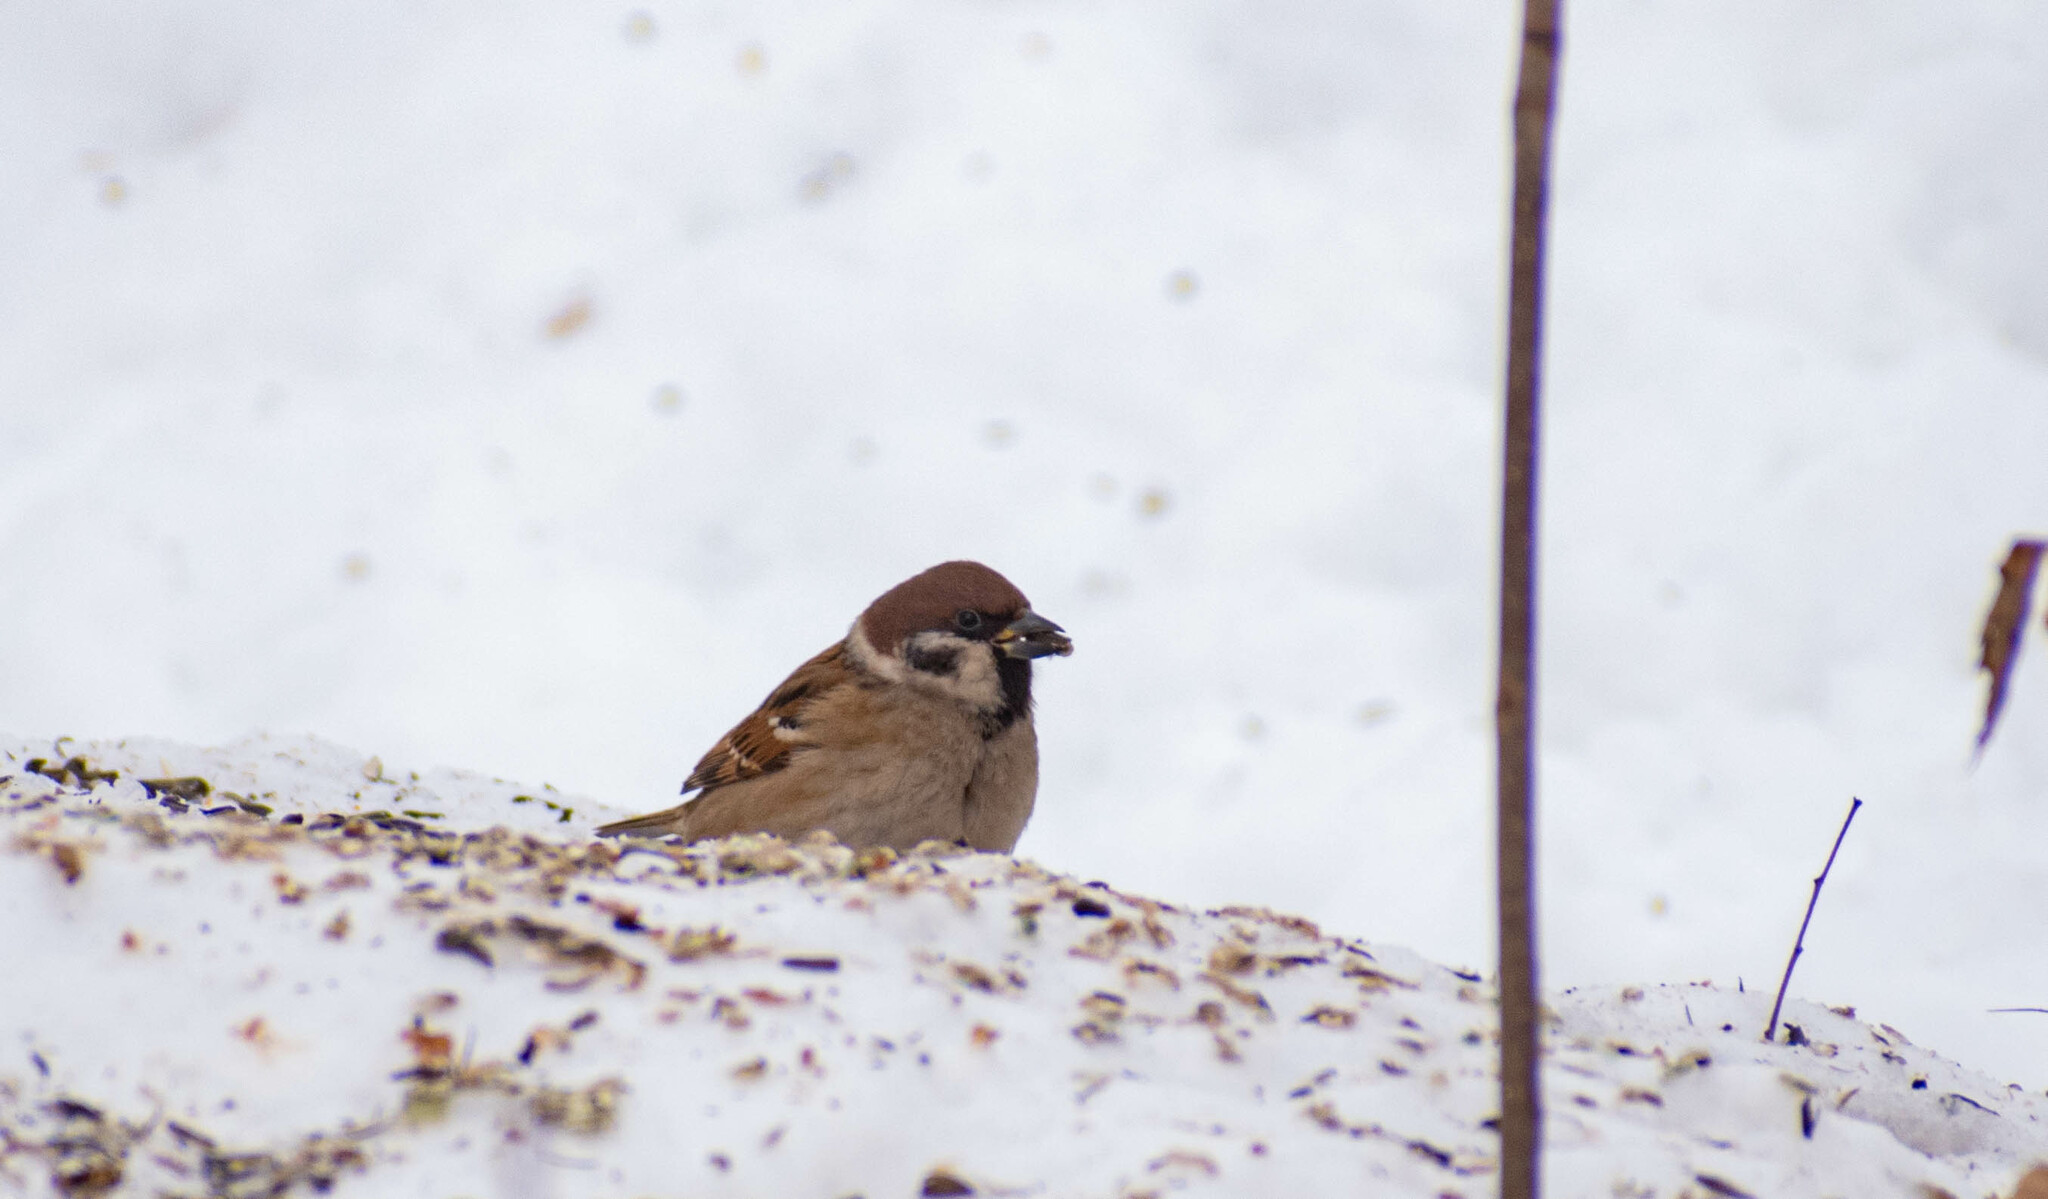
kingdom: Animalia
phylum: Chordata
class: Aves
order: Passeriformes
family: Passeridae
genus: Passer
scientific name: Passer montanus
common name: Eurasian tree sparrow
